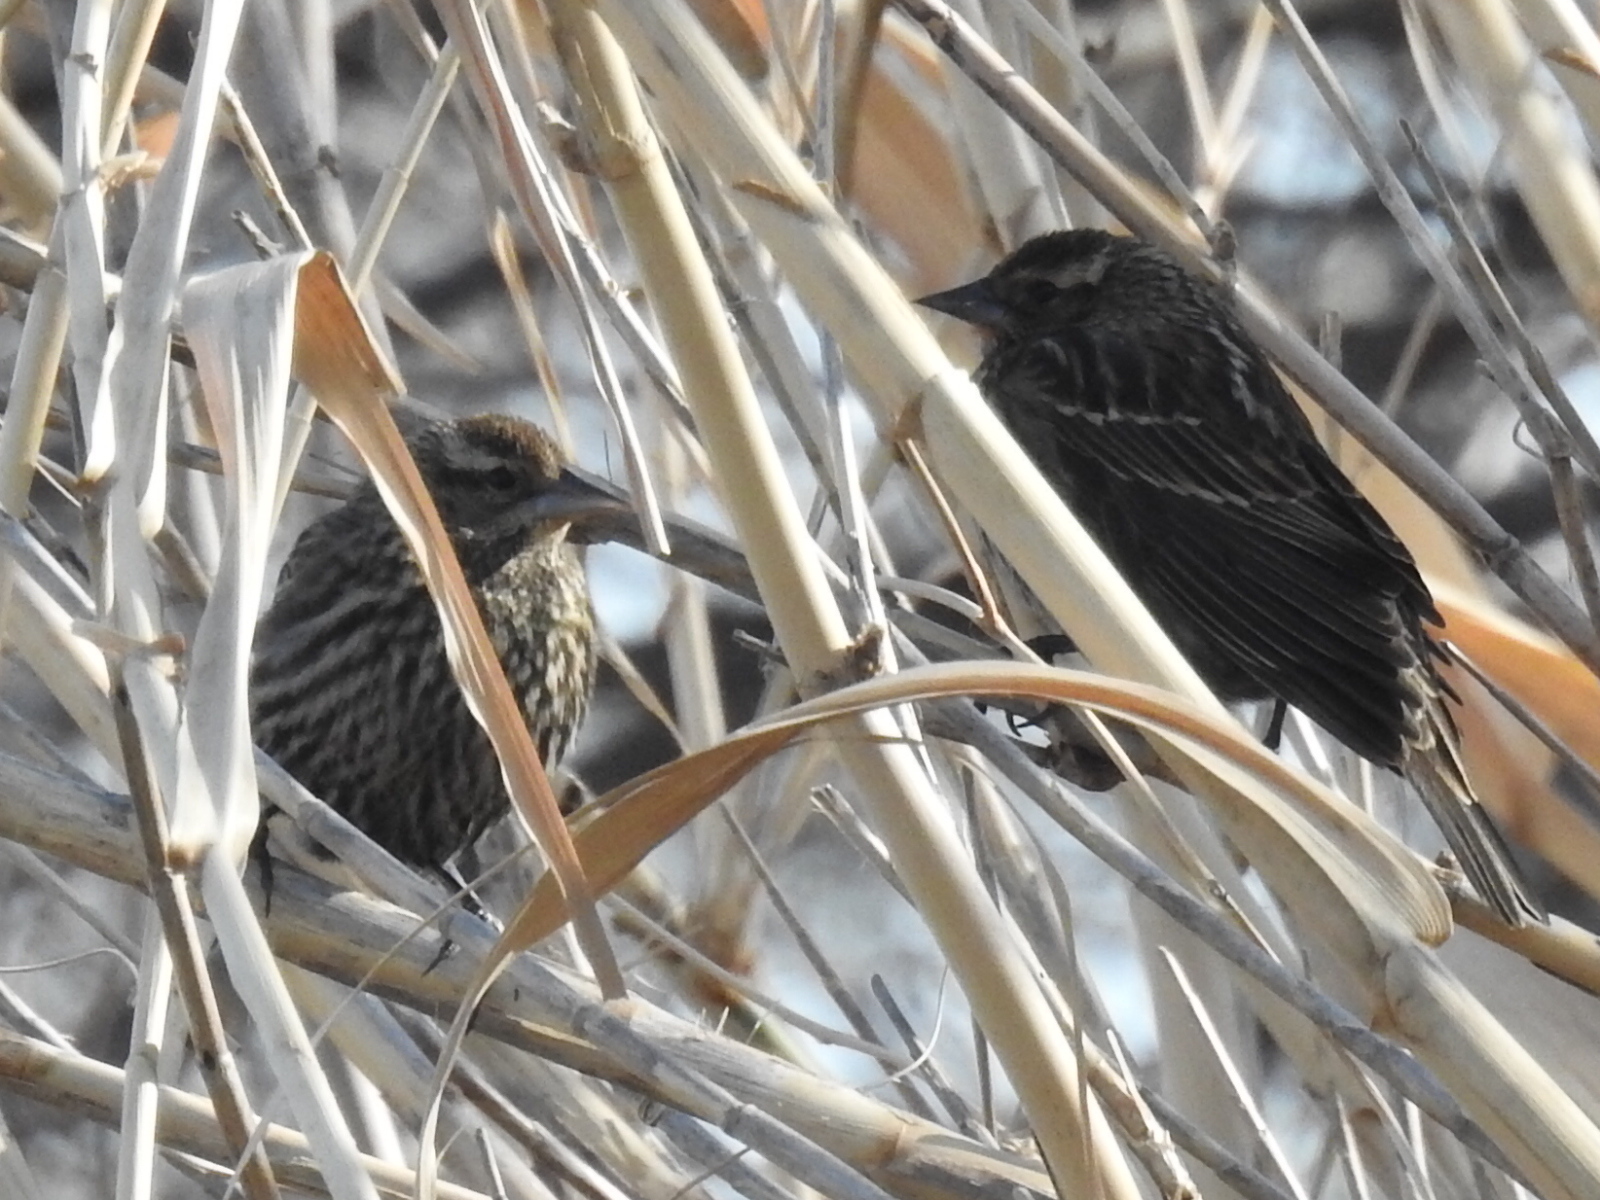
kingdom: Animalia
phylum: Chordata
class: Aves
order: Passeriformes
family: Icteridae
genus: Agelaius
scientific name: Agelaius phoeniceus
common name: Red-winged blackbird
